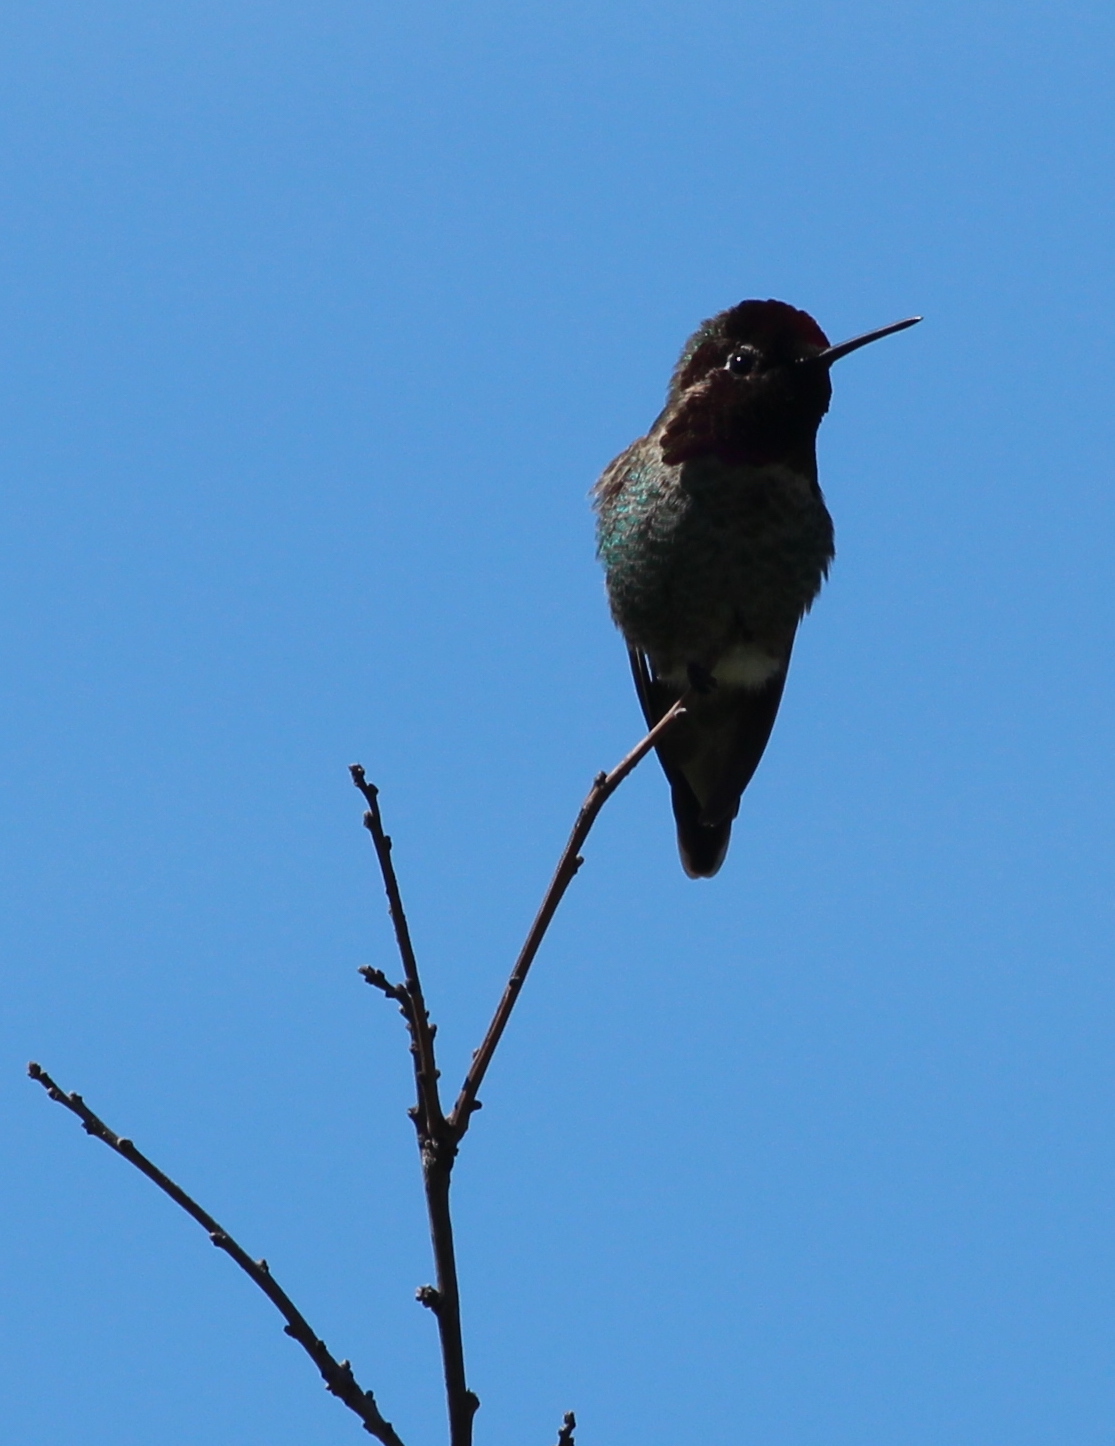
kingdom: Animalia
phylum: Chordata
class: Aves
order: Apodiformes
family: Trochilidae
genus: Calypte
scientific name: Calypte anna
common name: Anna's hummingbird
